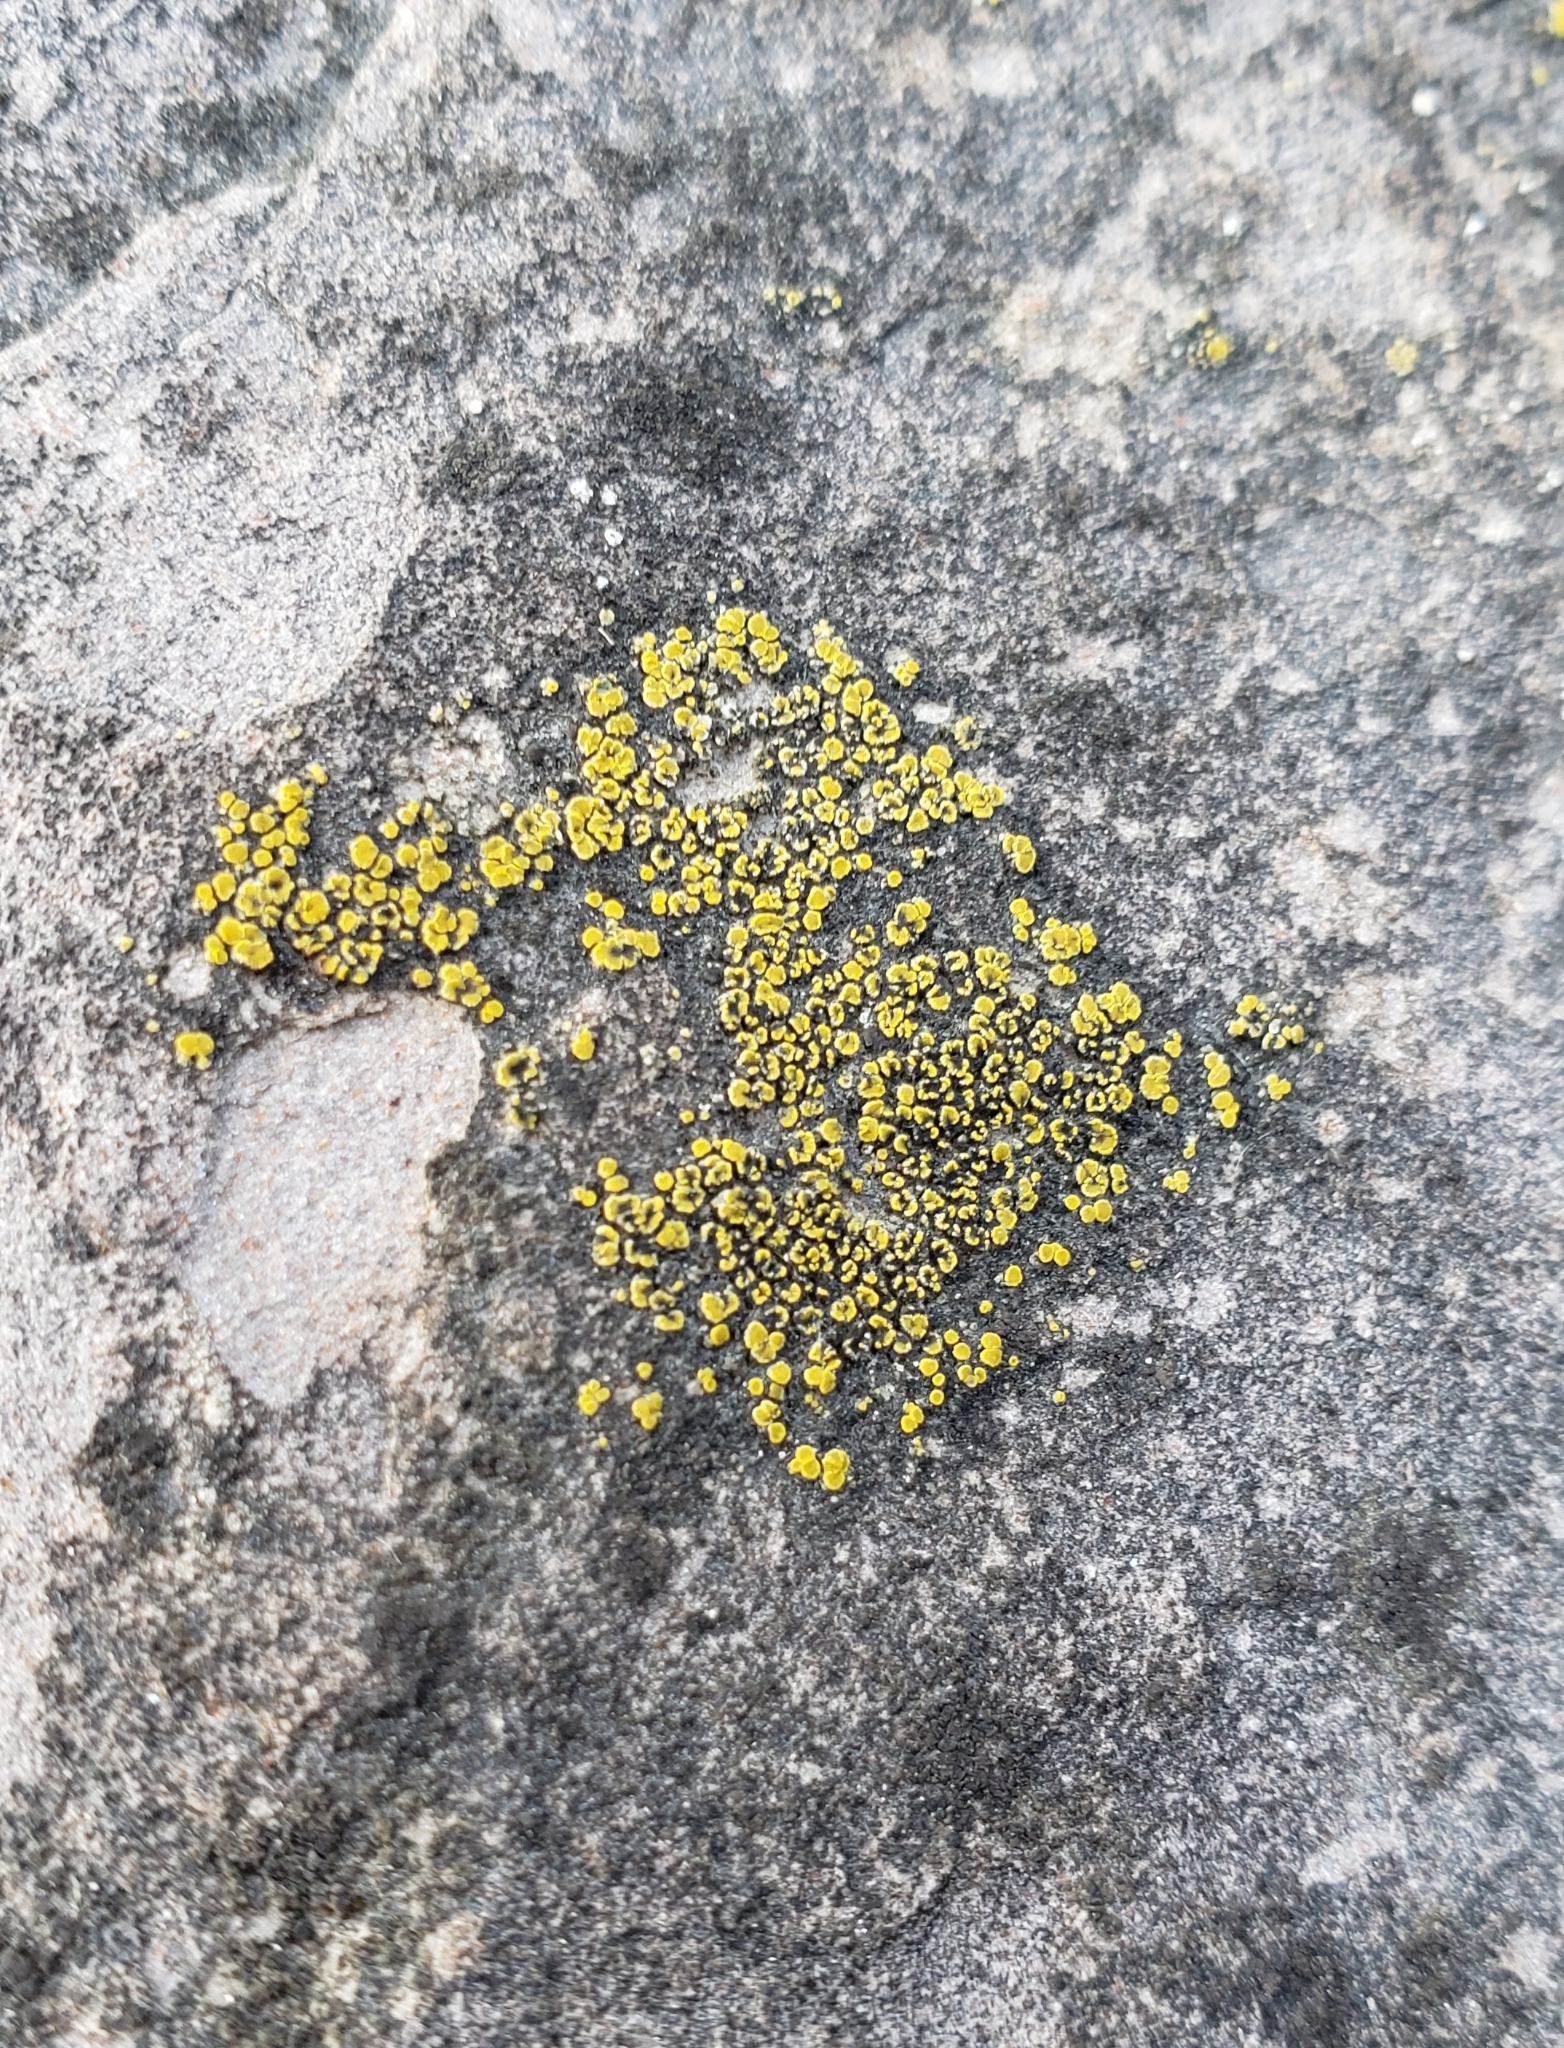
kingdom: Fungi
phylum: Ascomycota
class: Candelariomycetes
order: Candelariales
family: Candelariaceae
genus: Candelariella
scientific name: Candelariella aurella
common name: Hidden goldspeck lichen
